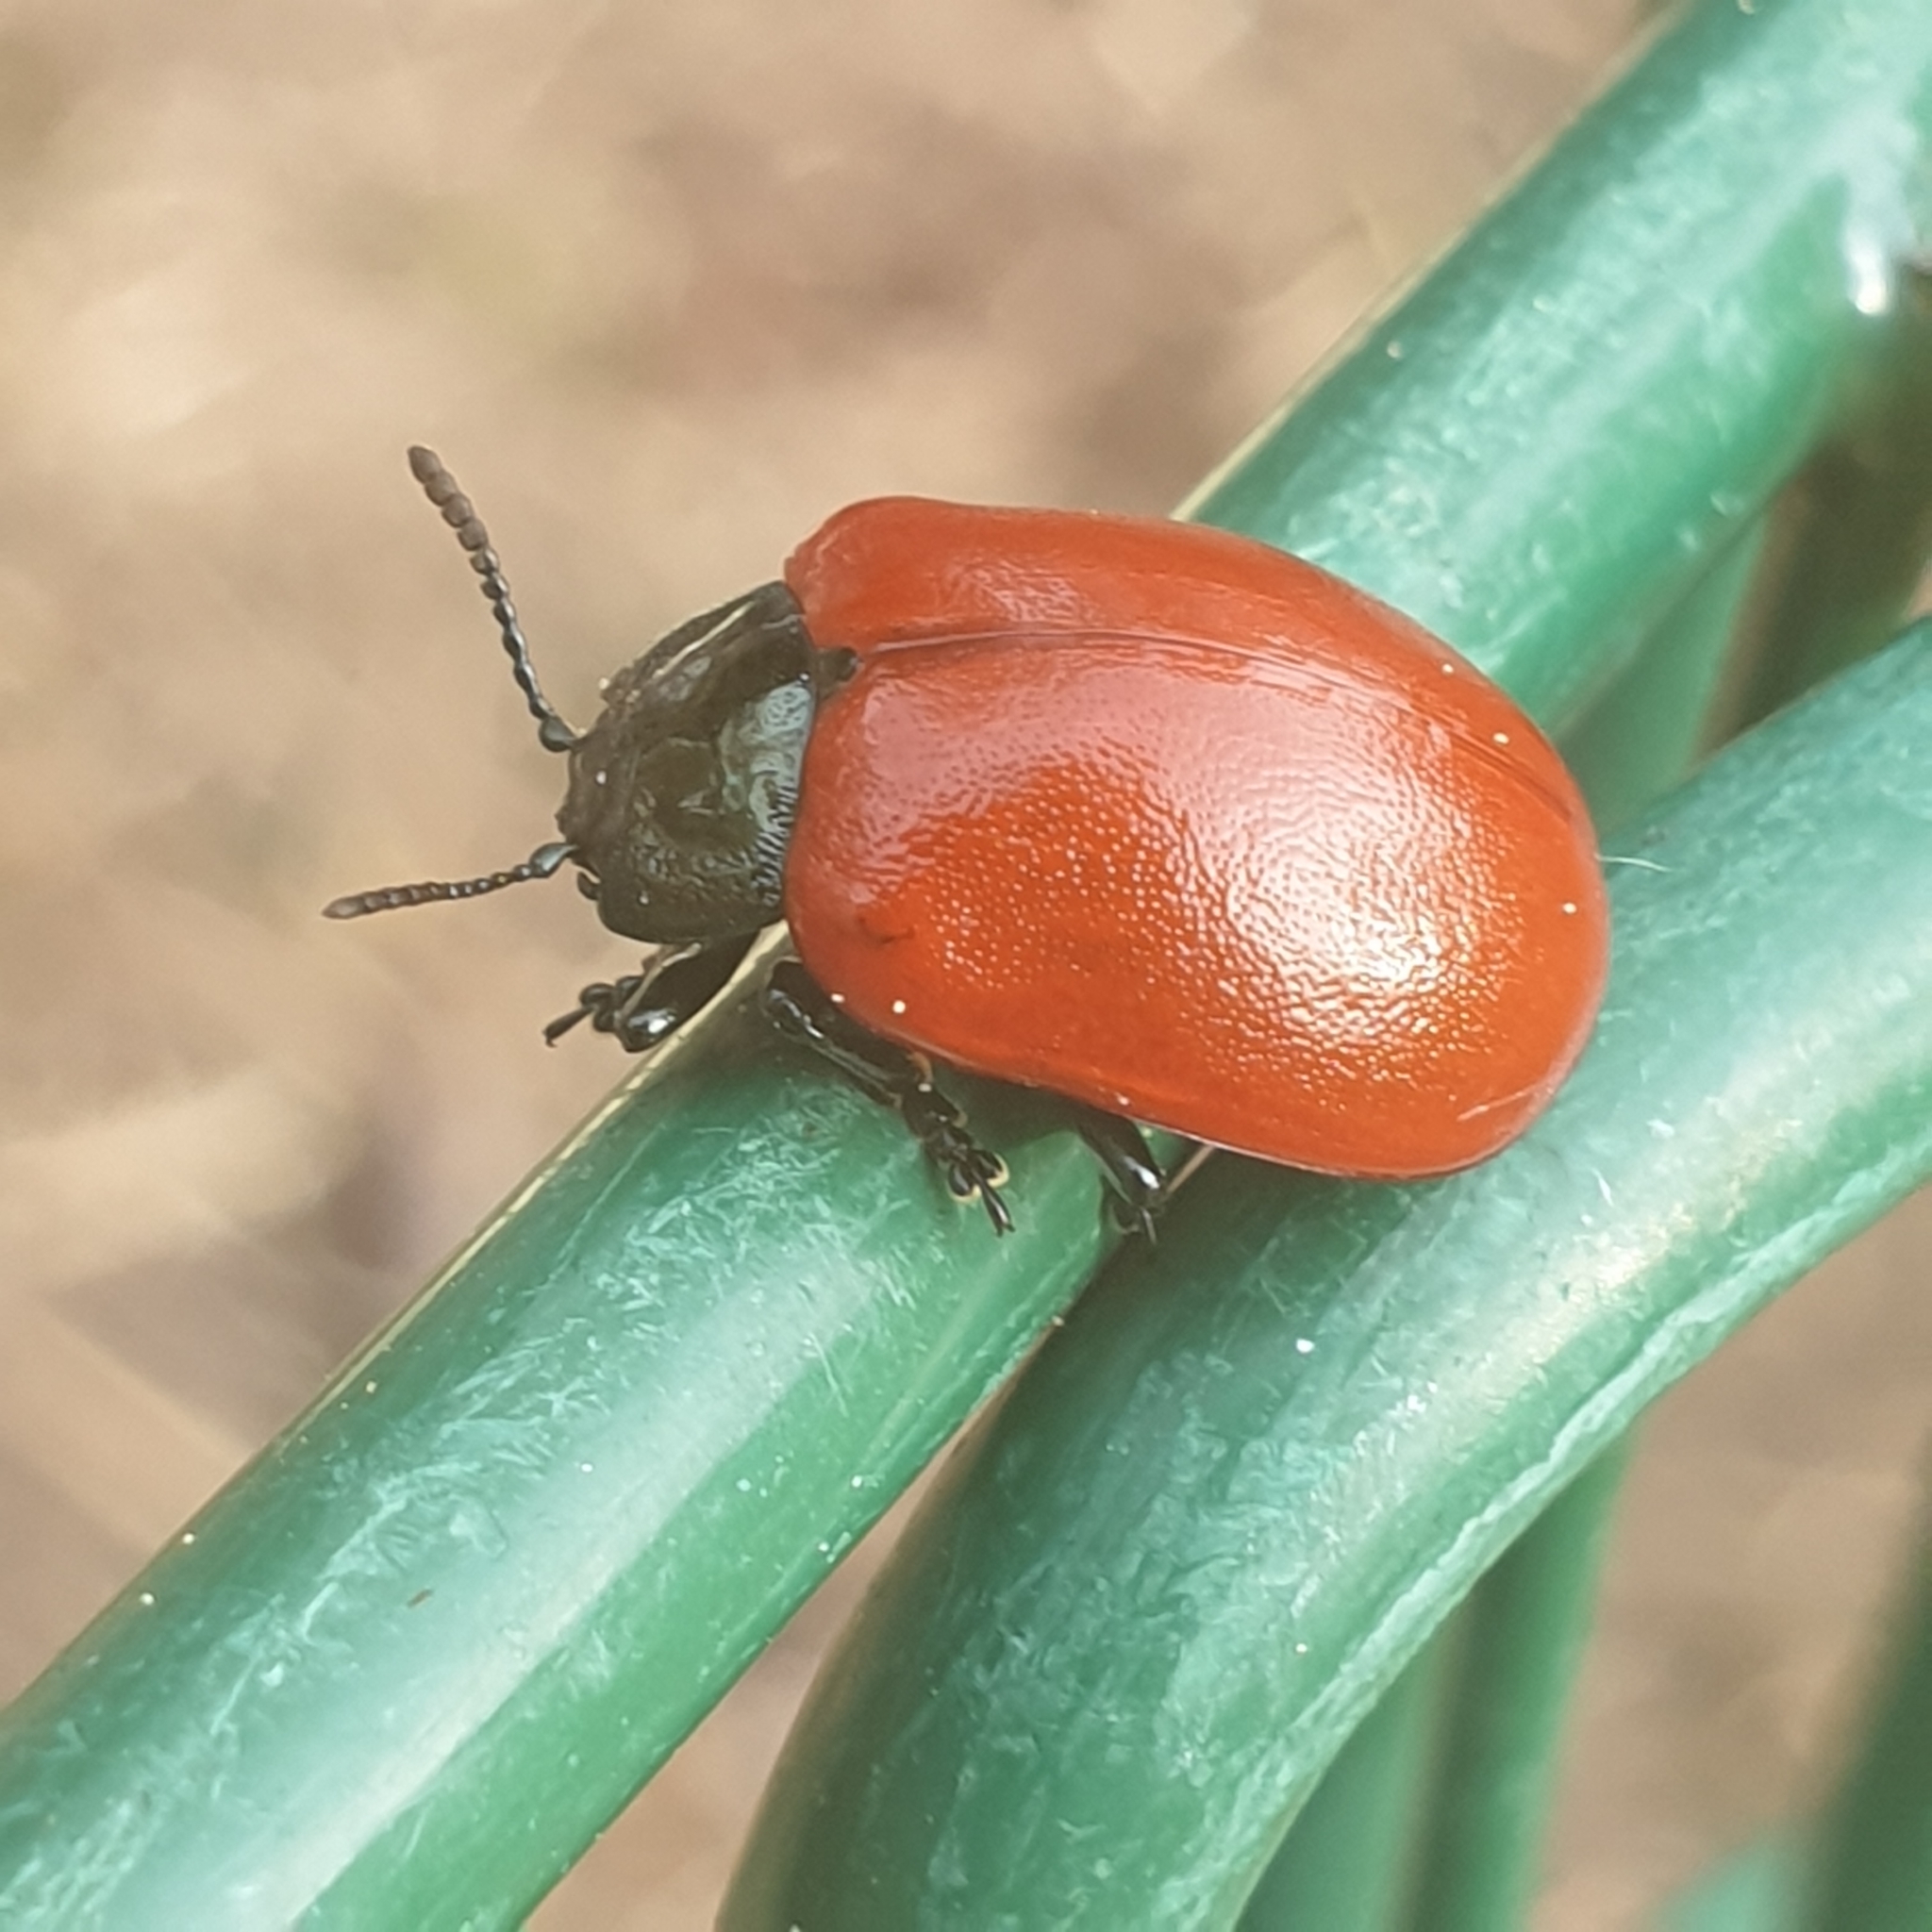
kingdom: Animalia
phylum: Arthropoda
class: Insecta
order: Coleoptera
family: Chrysomelidae
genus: Chrysomela
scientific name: Chrysomela populi
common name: Red poplar leaf beetle
